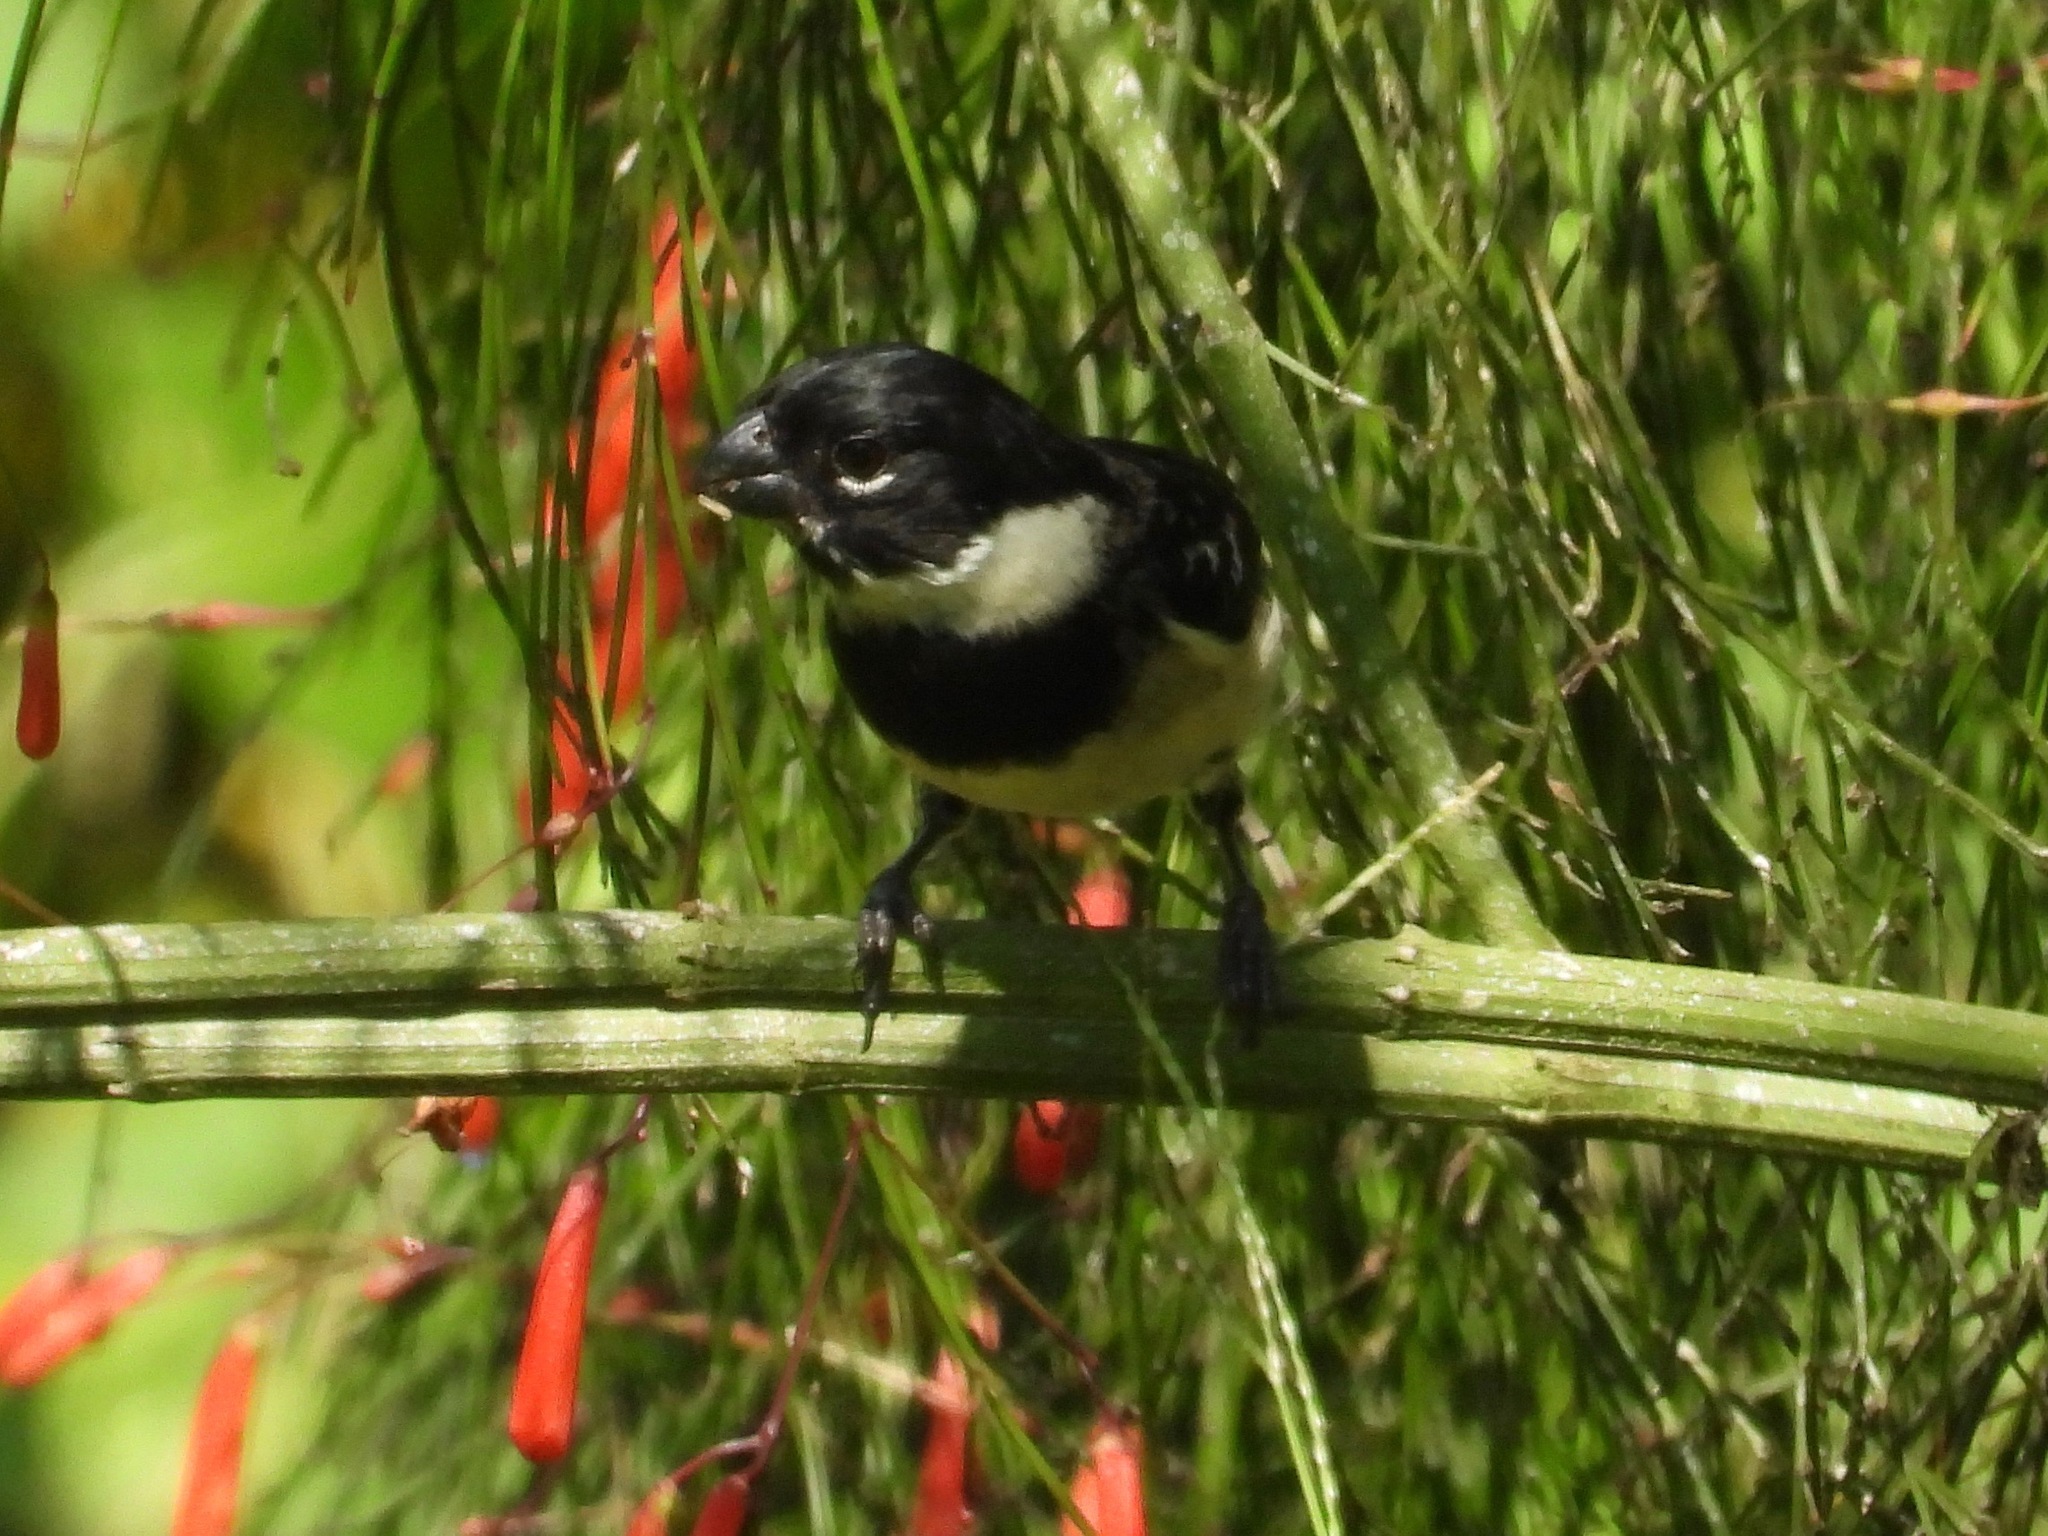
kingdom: Animalia
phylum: Chordata
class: Aves
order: Passeriformes
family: Thraupidae
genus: Sporophila
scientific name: Sporophila morelleti
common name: Morelet's seedeater
